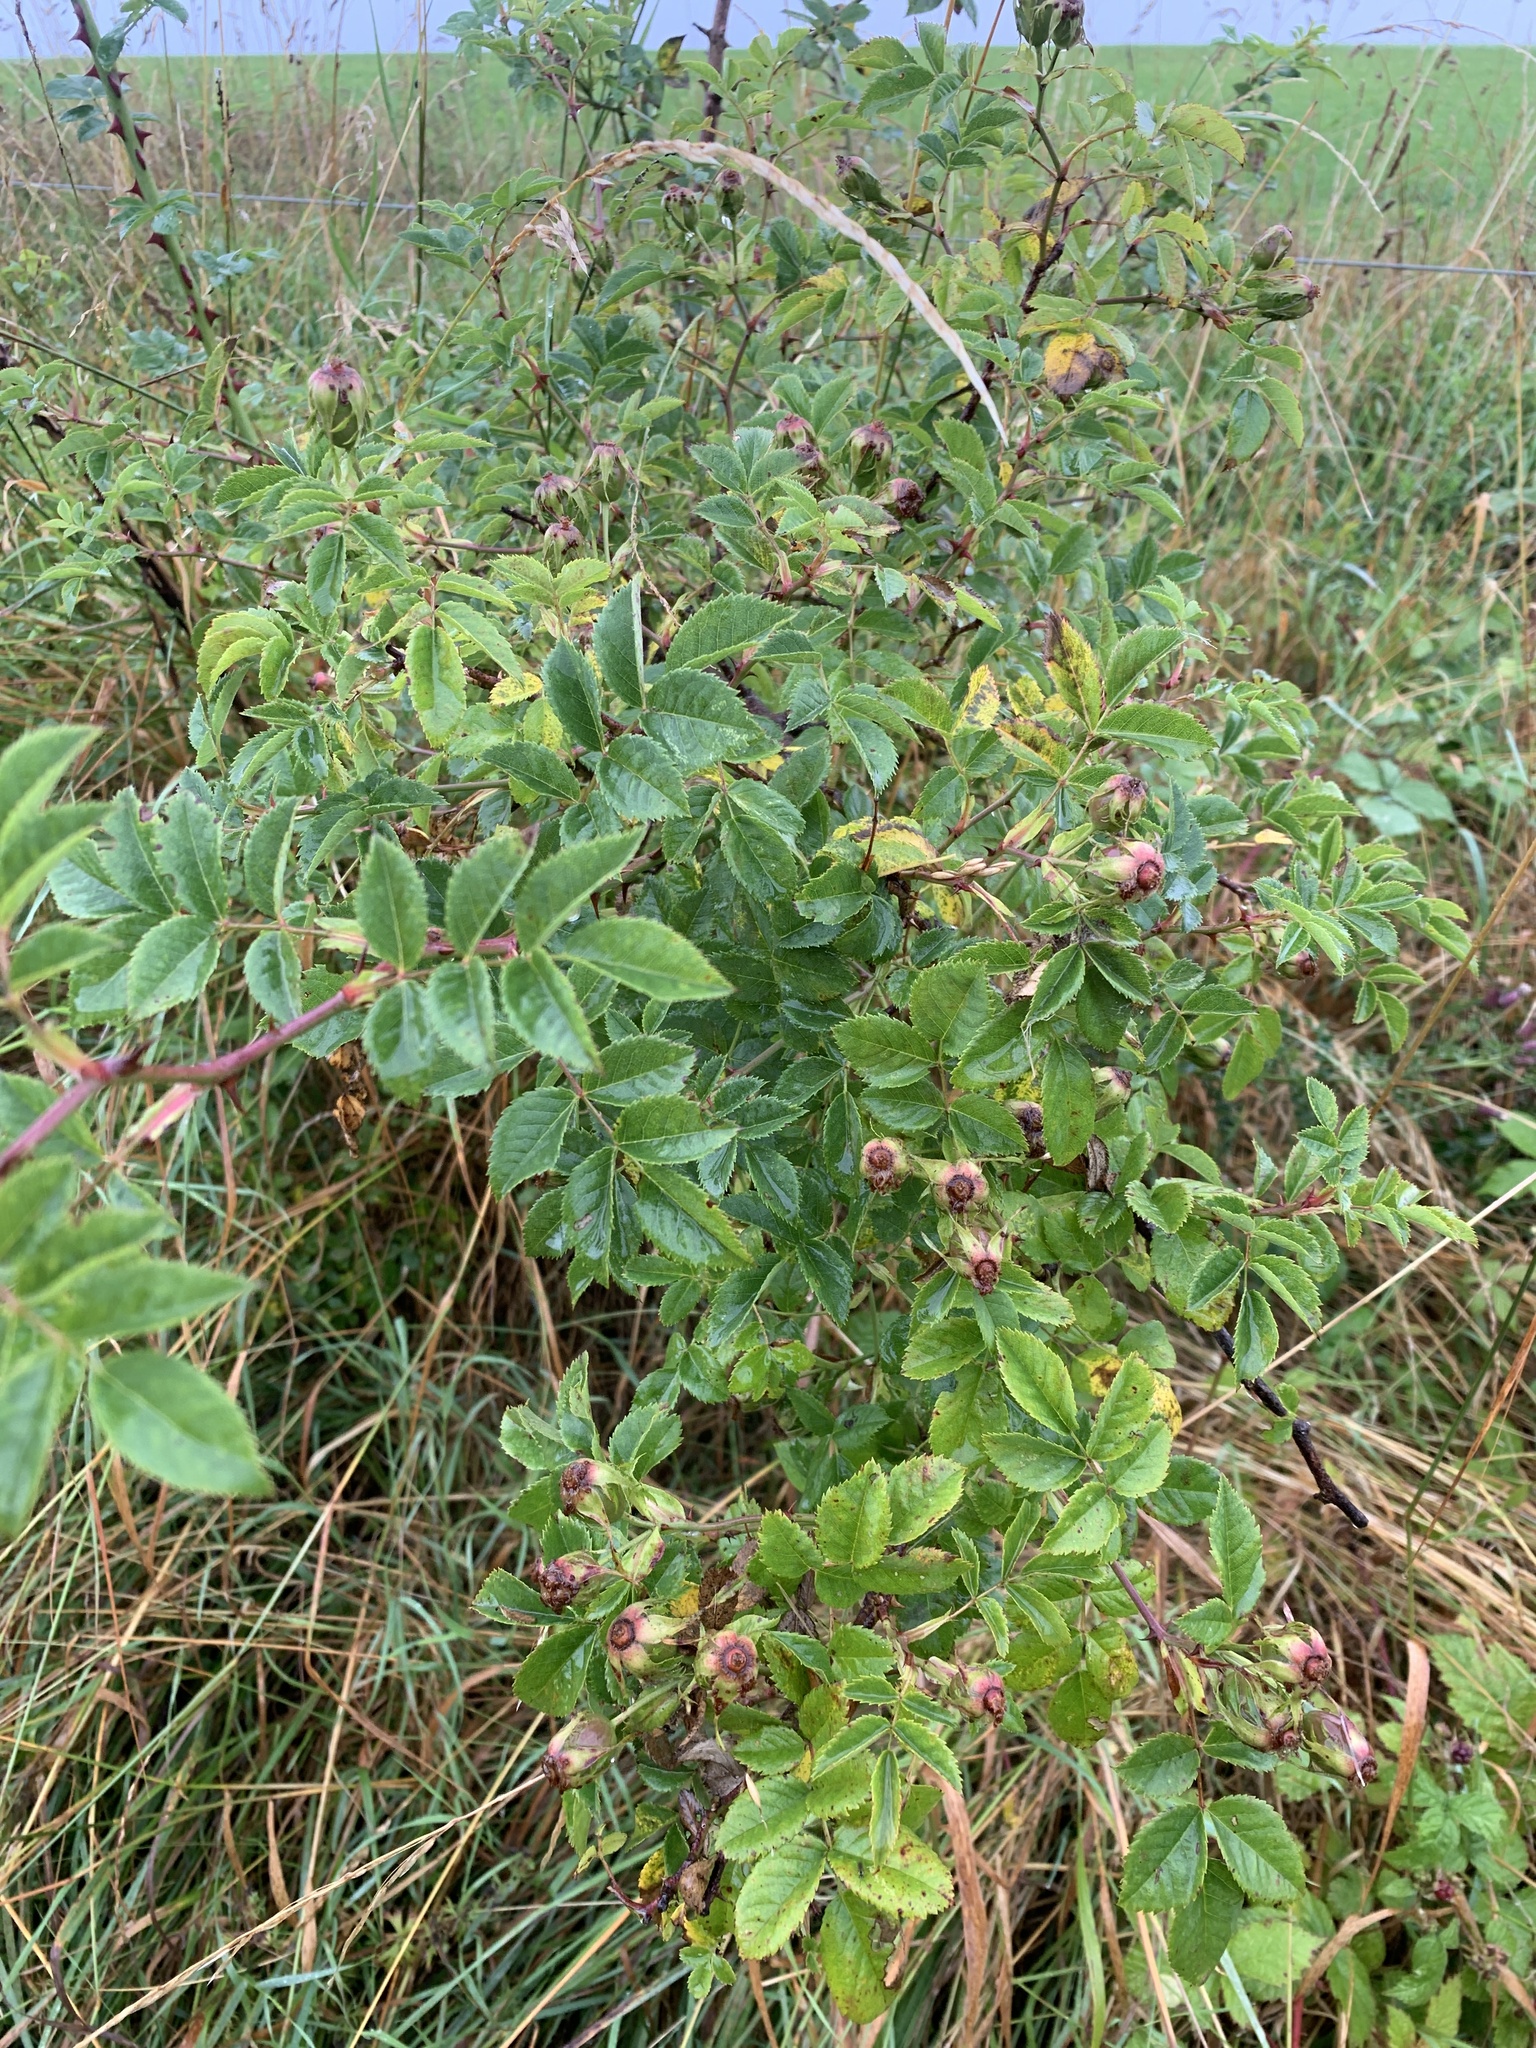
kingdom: Plantae
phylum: Tracheophyta
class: Magnoliopsida
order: Rosales
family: Rosaceae
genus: Rosa
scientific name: Rosa canina
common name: Dog rose
